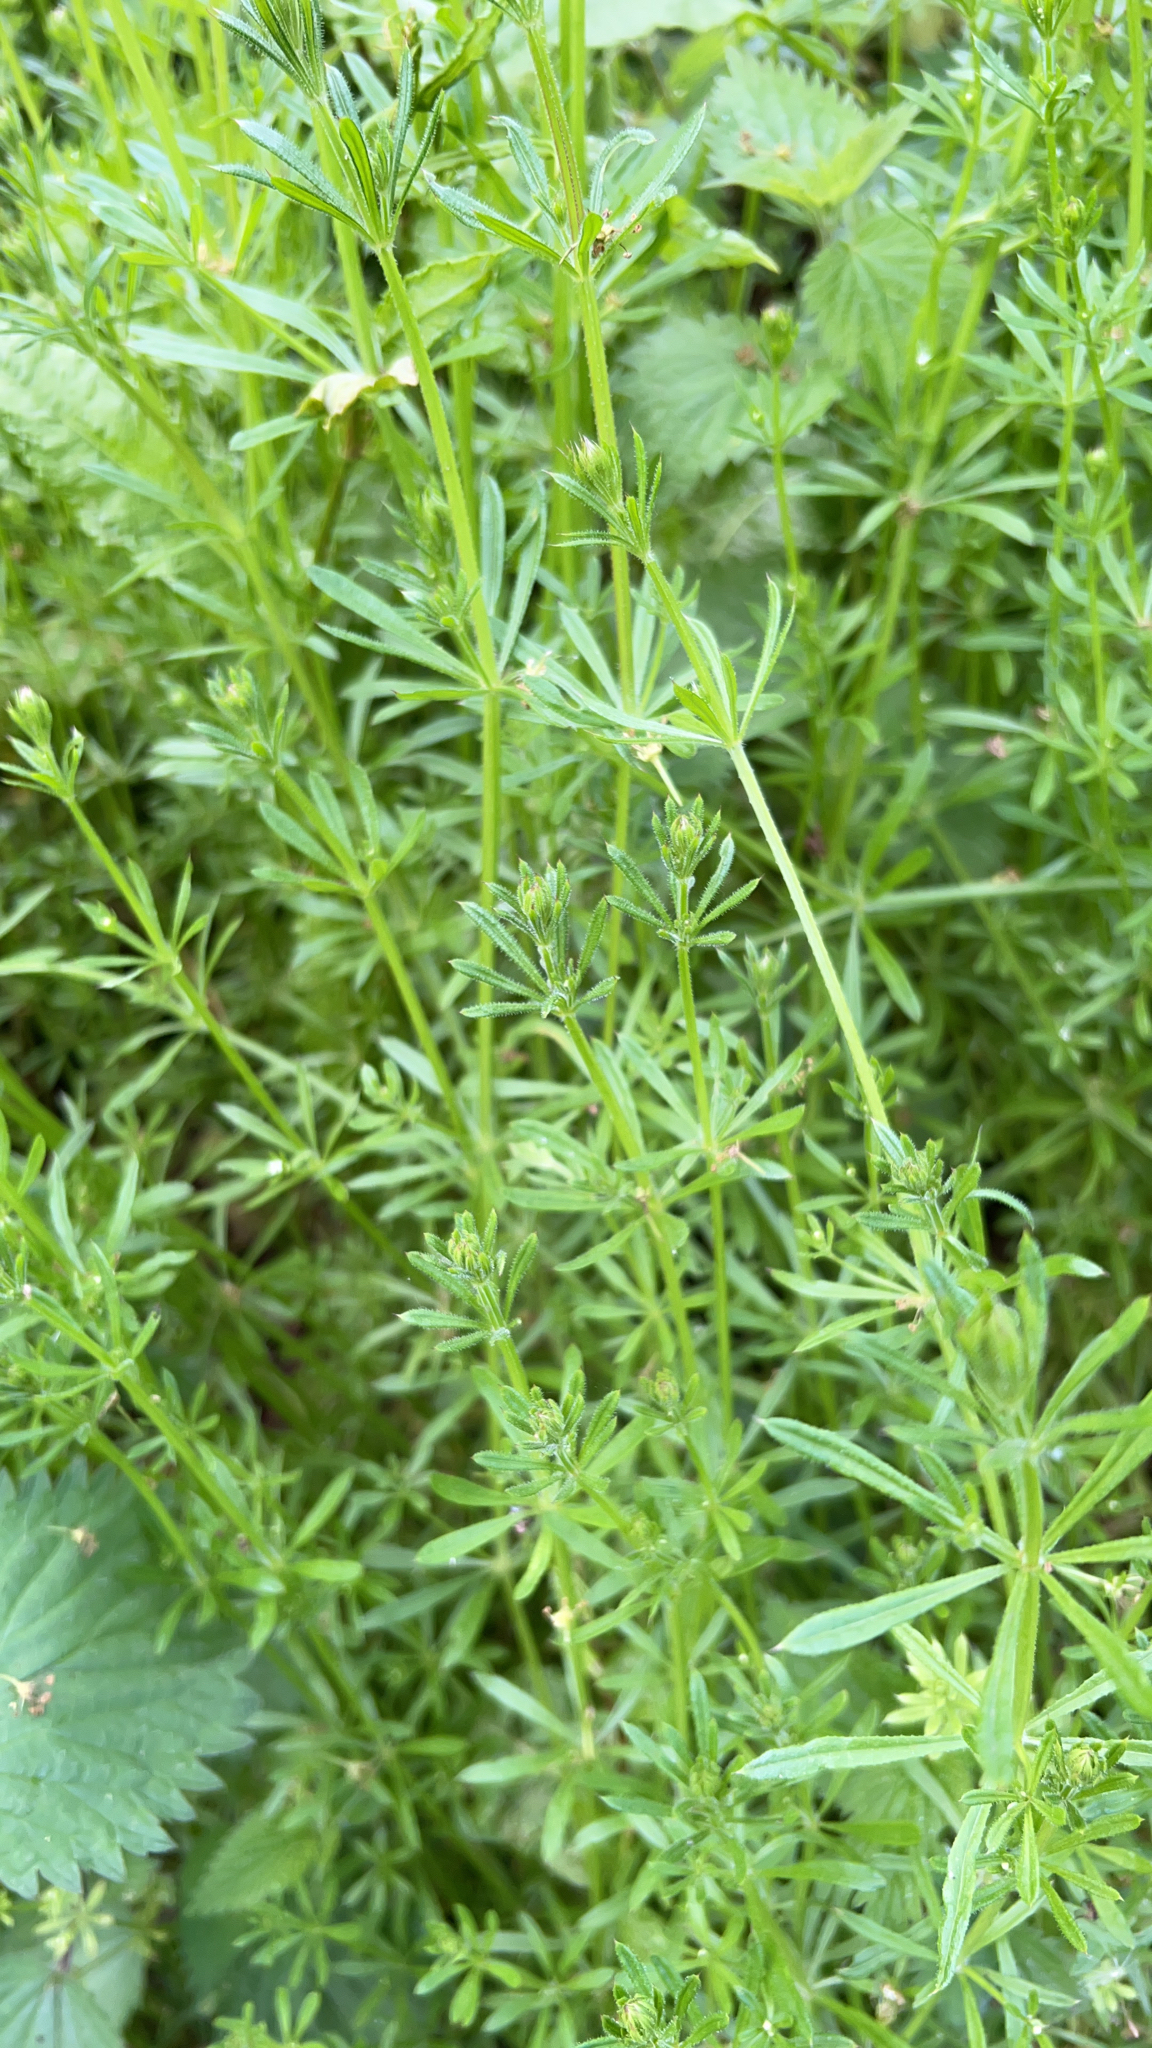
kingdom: Plantae
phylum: Tracheophyta
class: Magnoliopsida
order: Gentianales
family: Rubiaceae
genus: Galium
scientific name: Galium aparine
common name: Cleavers
